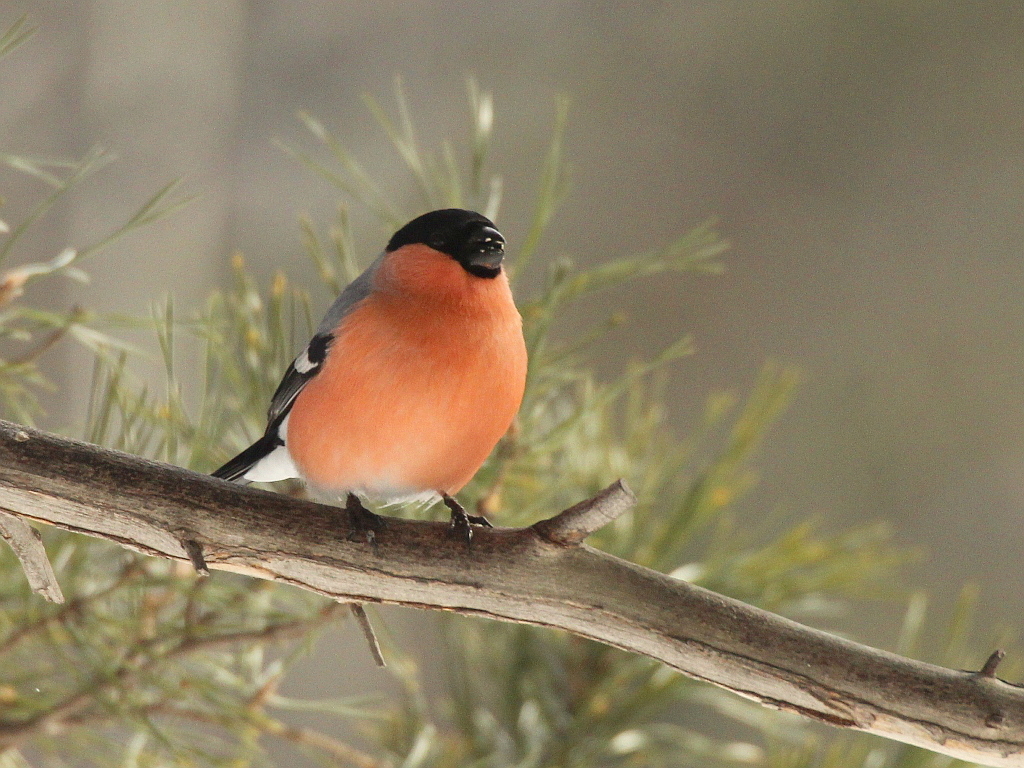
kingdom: Animalia
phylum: Chordata
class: Aves
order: Passeriformes
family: Fringillidae
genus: Pyrrhula
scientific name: Pyrrhula pyrrhula
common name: Eurasian bullfinch
